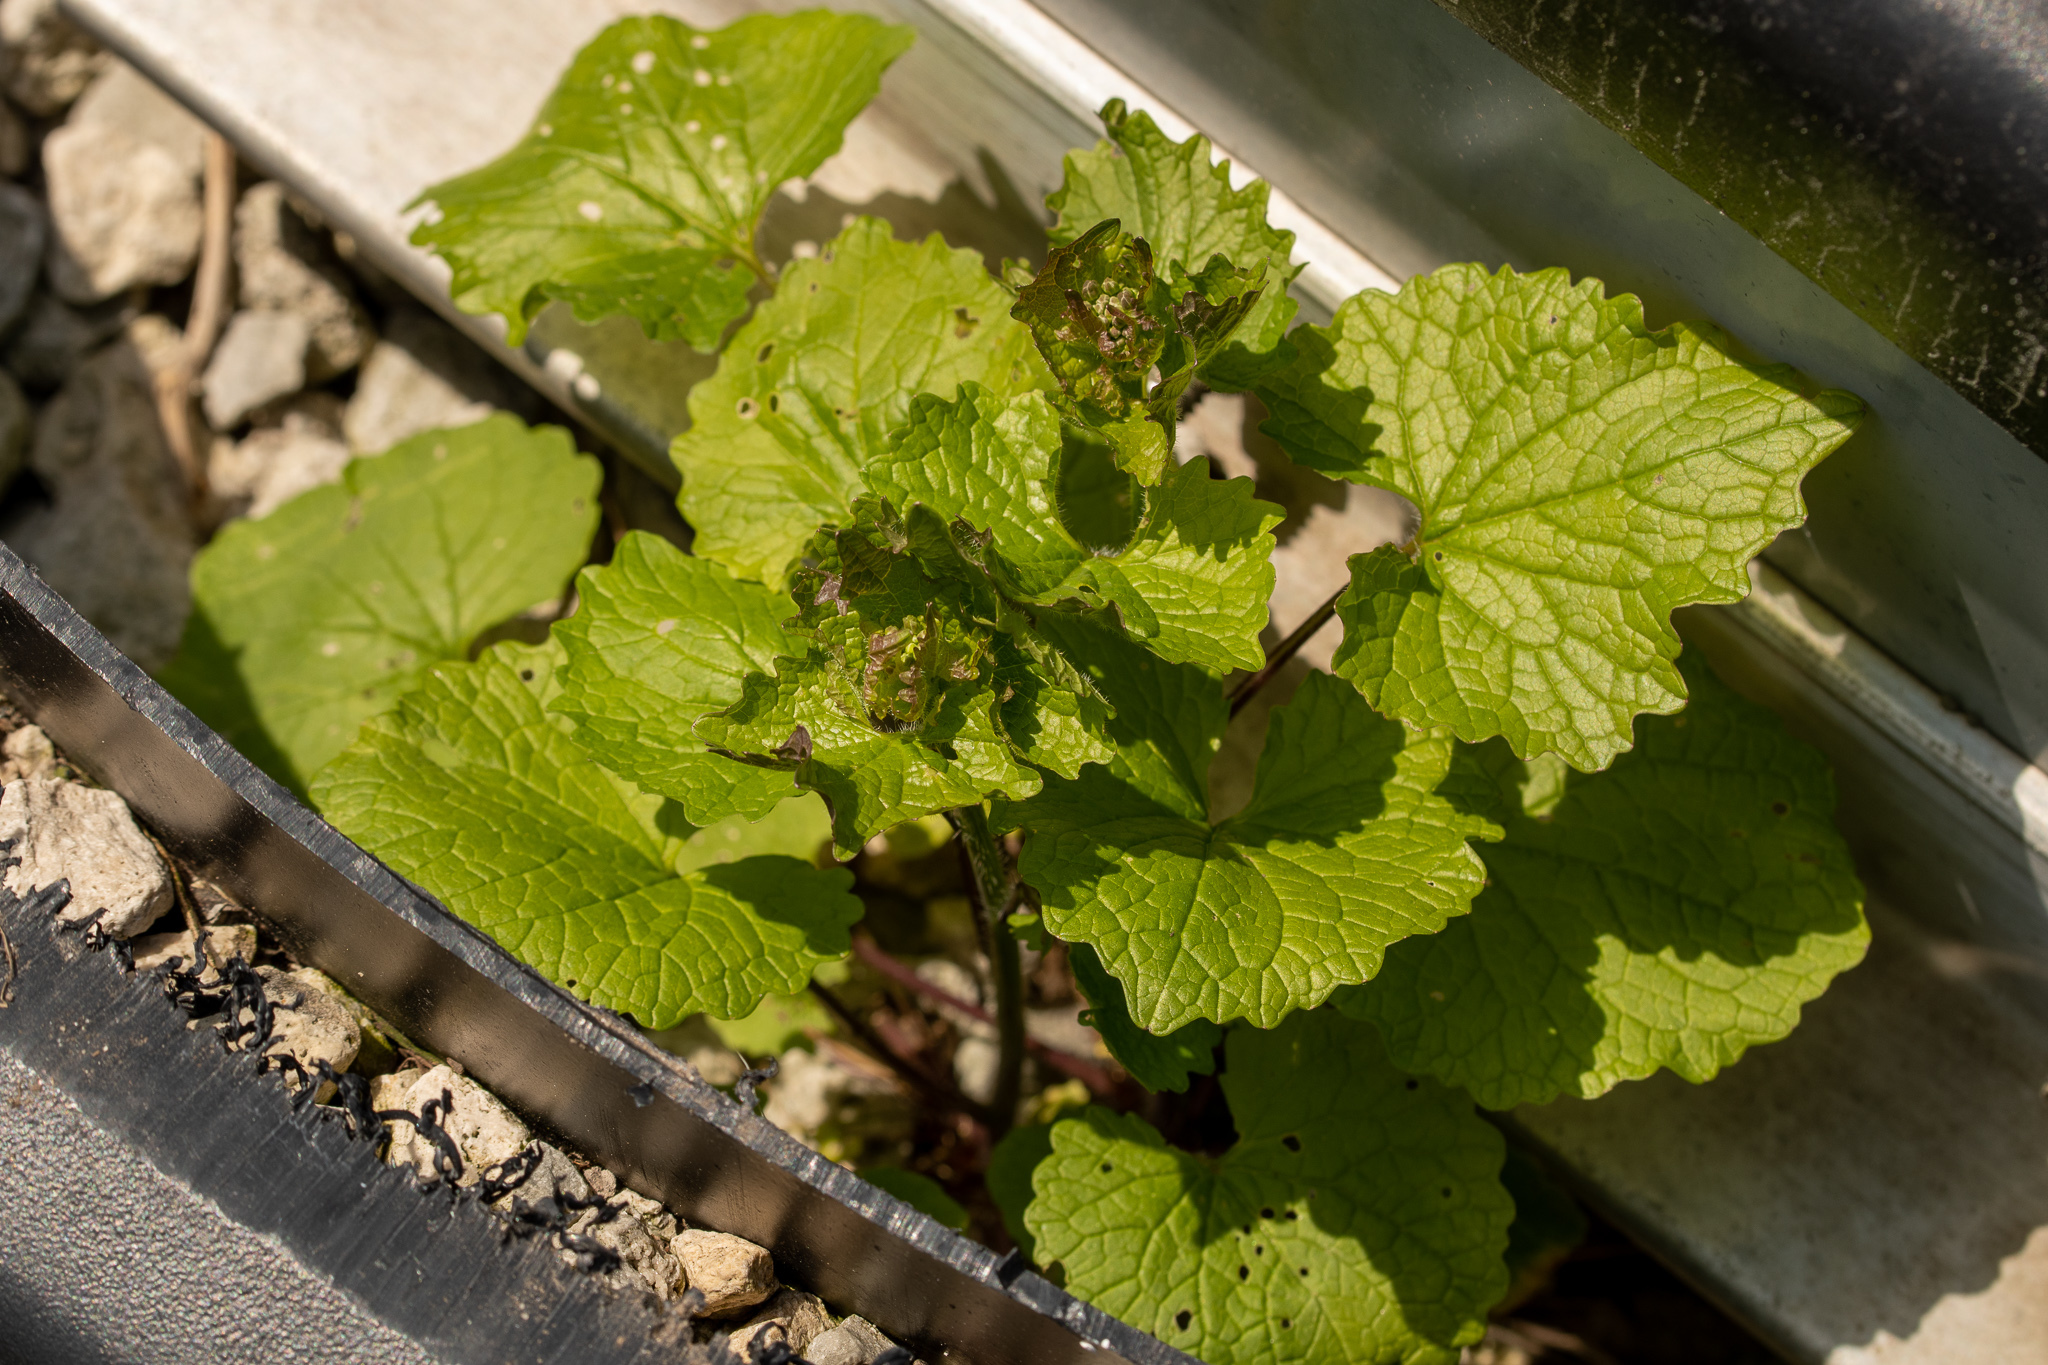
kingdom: Plantae
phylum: Tracheophyta
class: Magnoliopsida
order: Brassicales
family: Brassicaceae
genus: Alliaria
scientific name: Alliaria petiolata
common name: Garlic mustard
